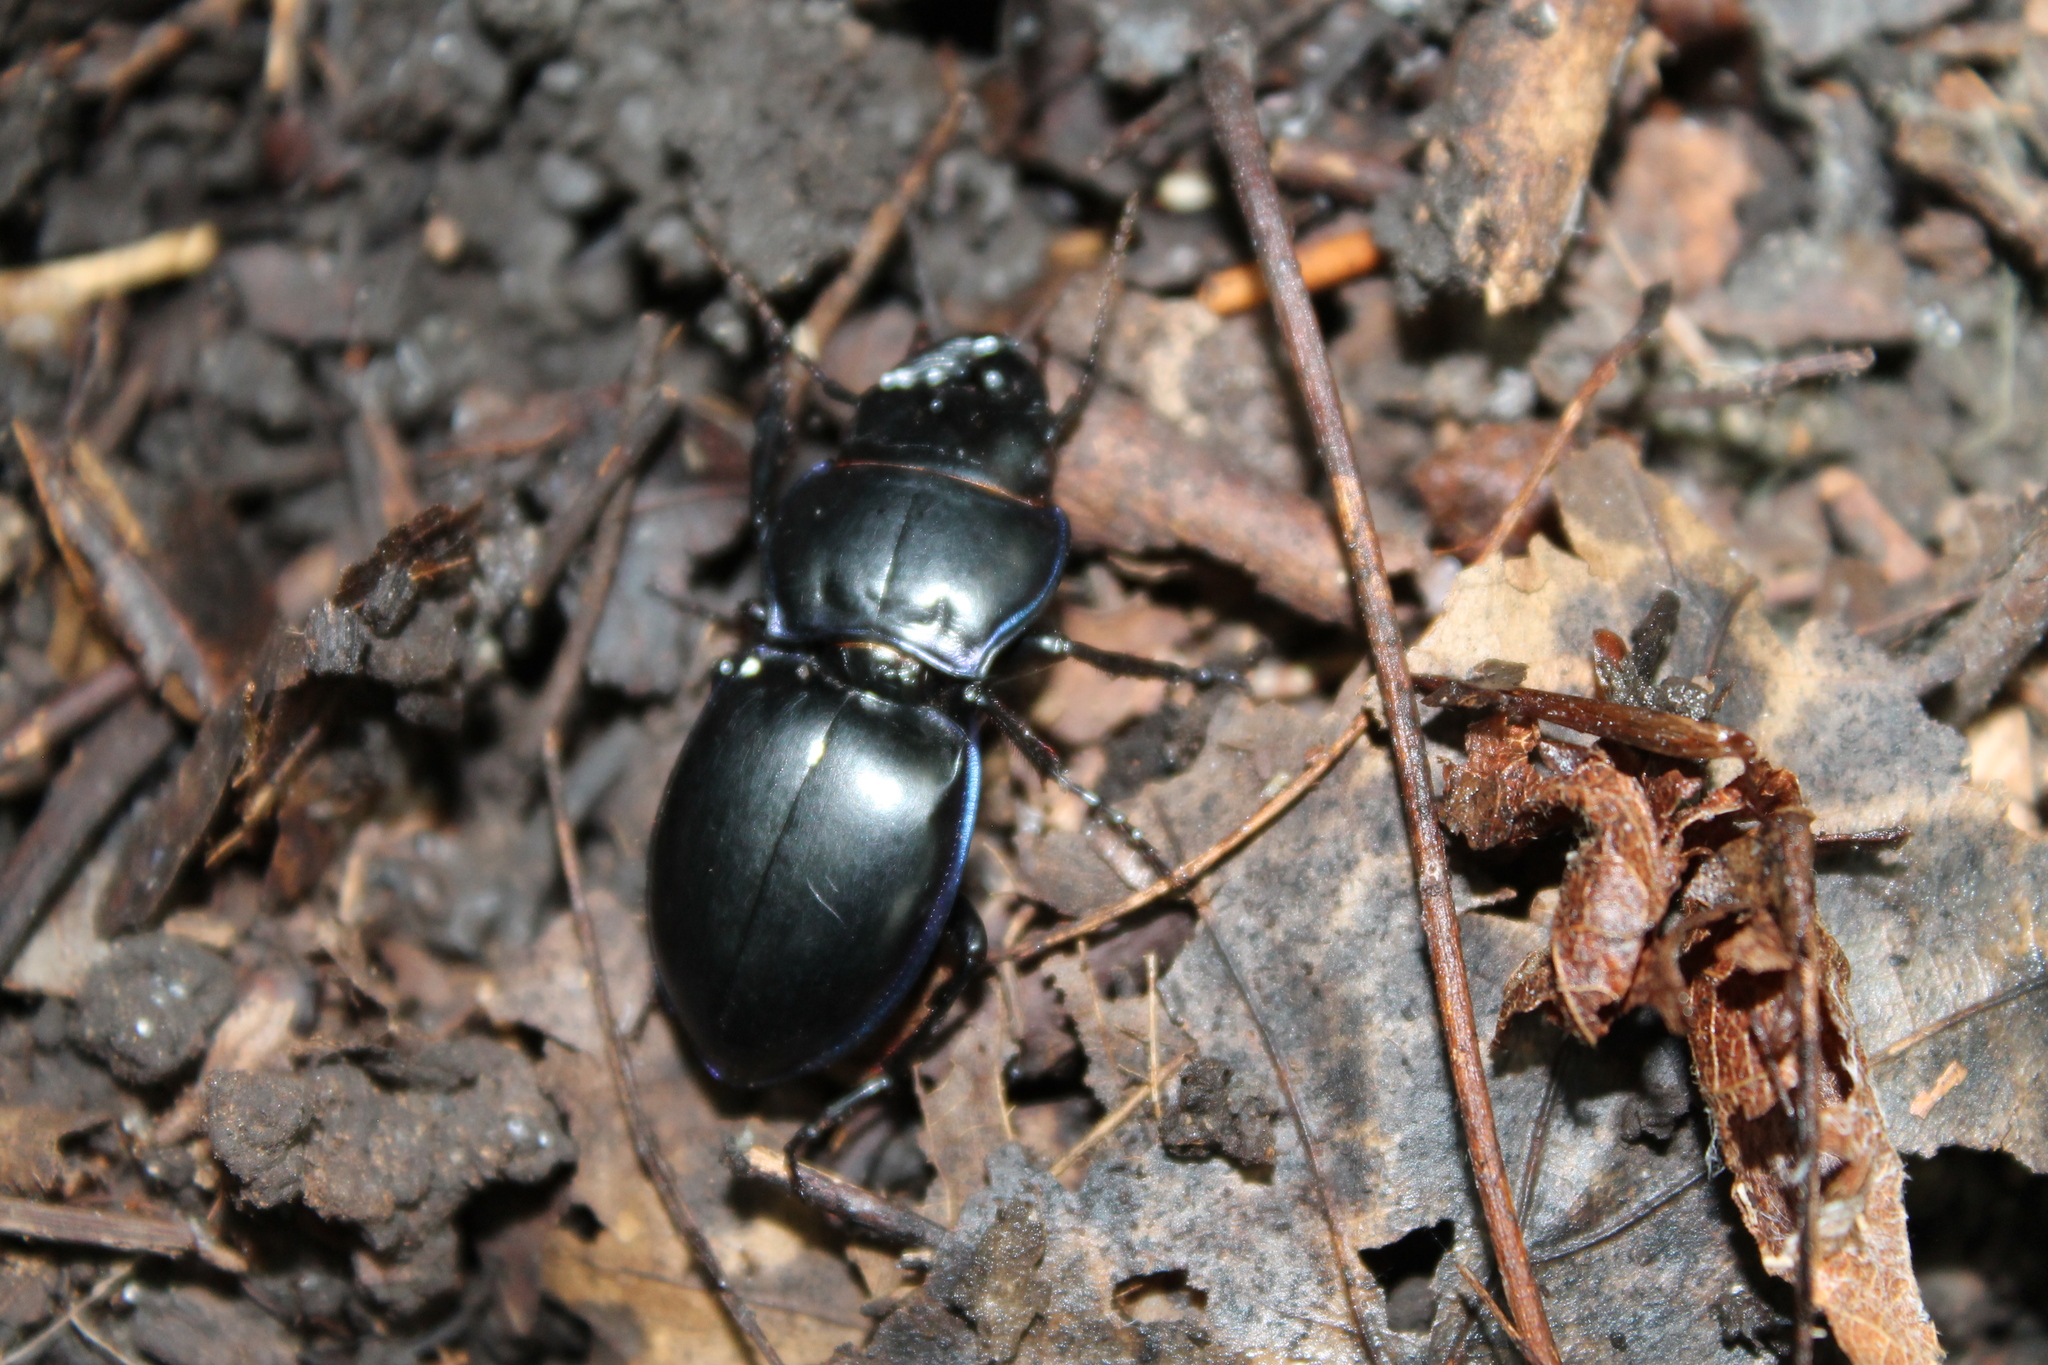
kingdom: Animalia
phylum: Arthropoda
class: Insecta
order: Coleoptera
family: Carabidae
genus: Pasimachus
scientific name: Pasimachus elongatus
